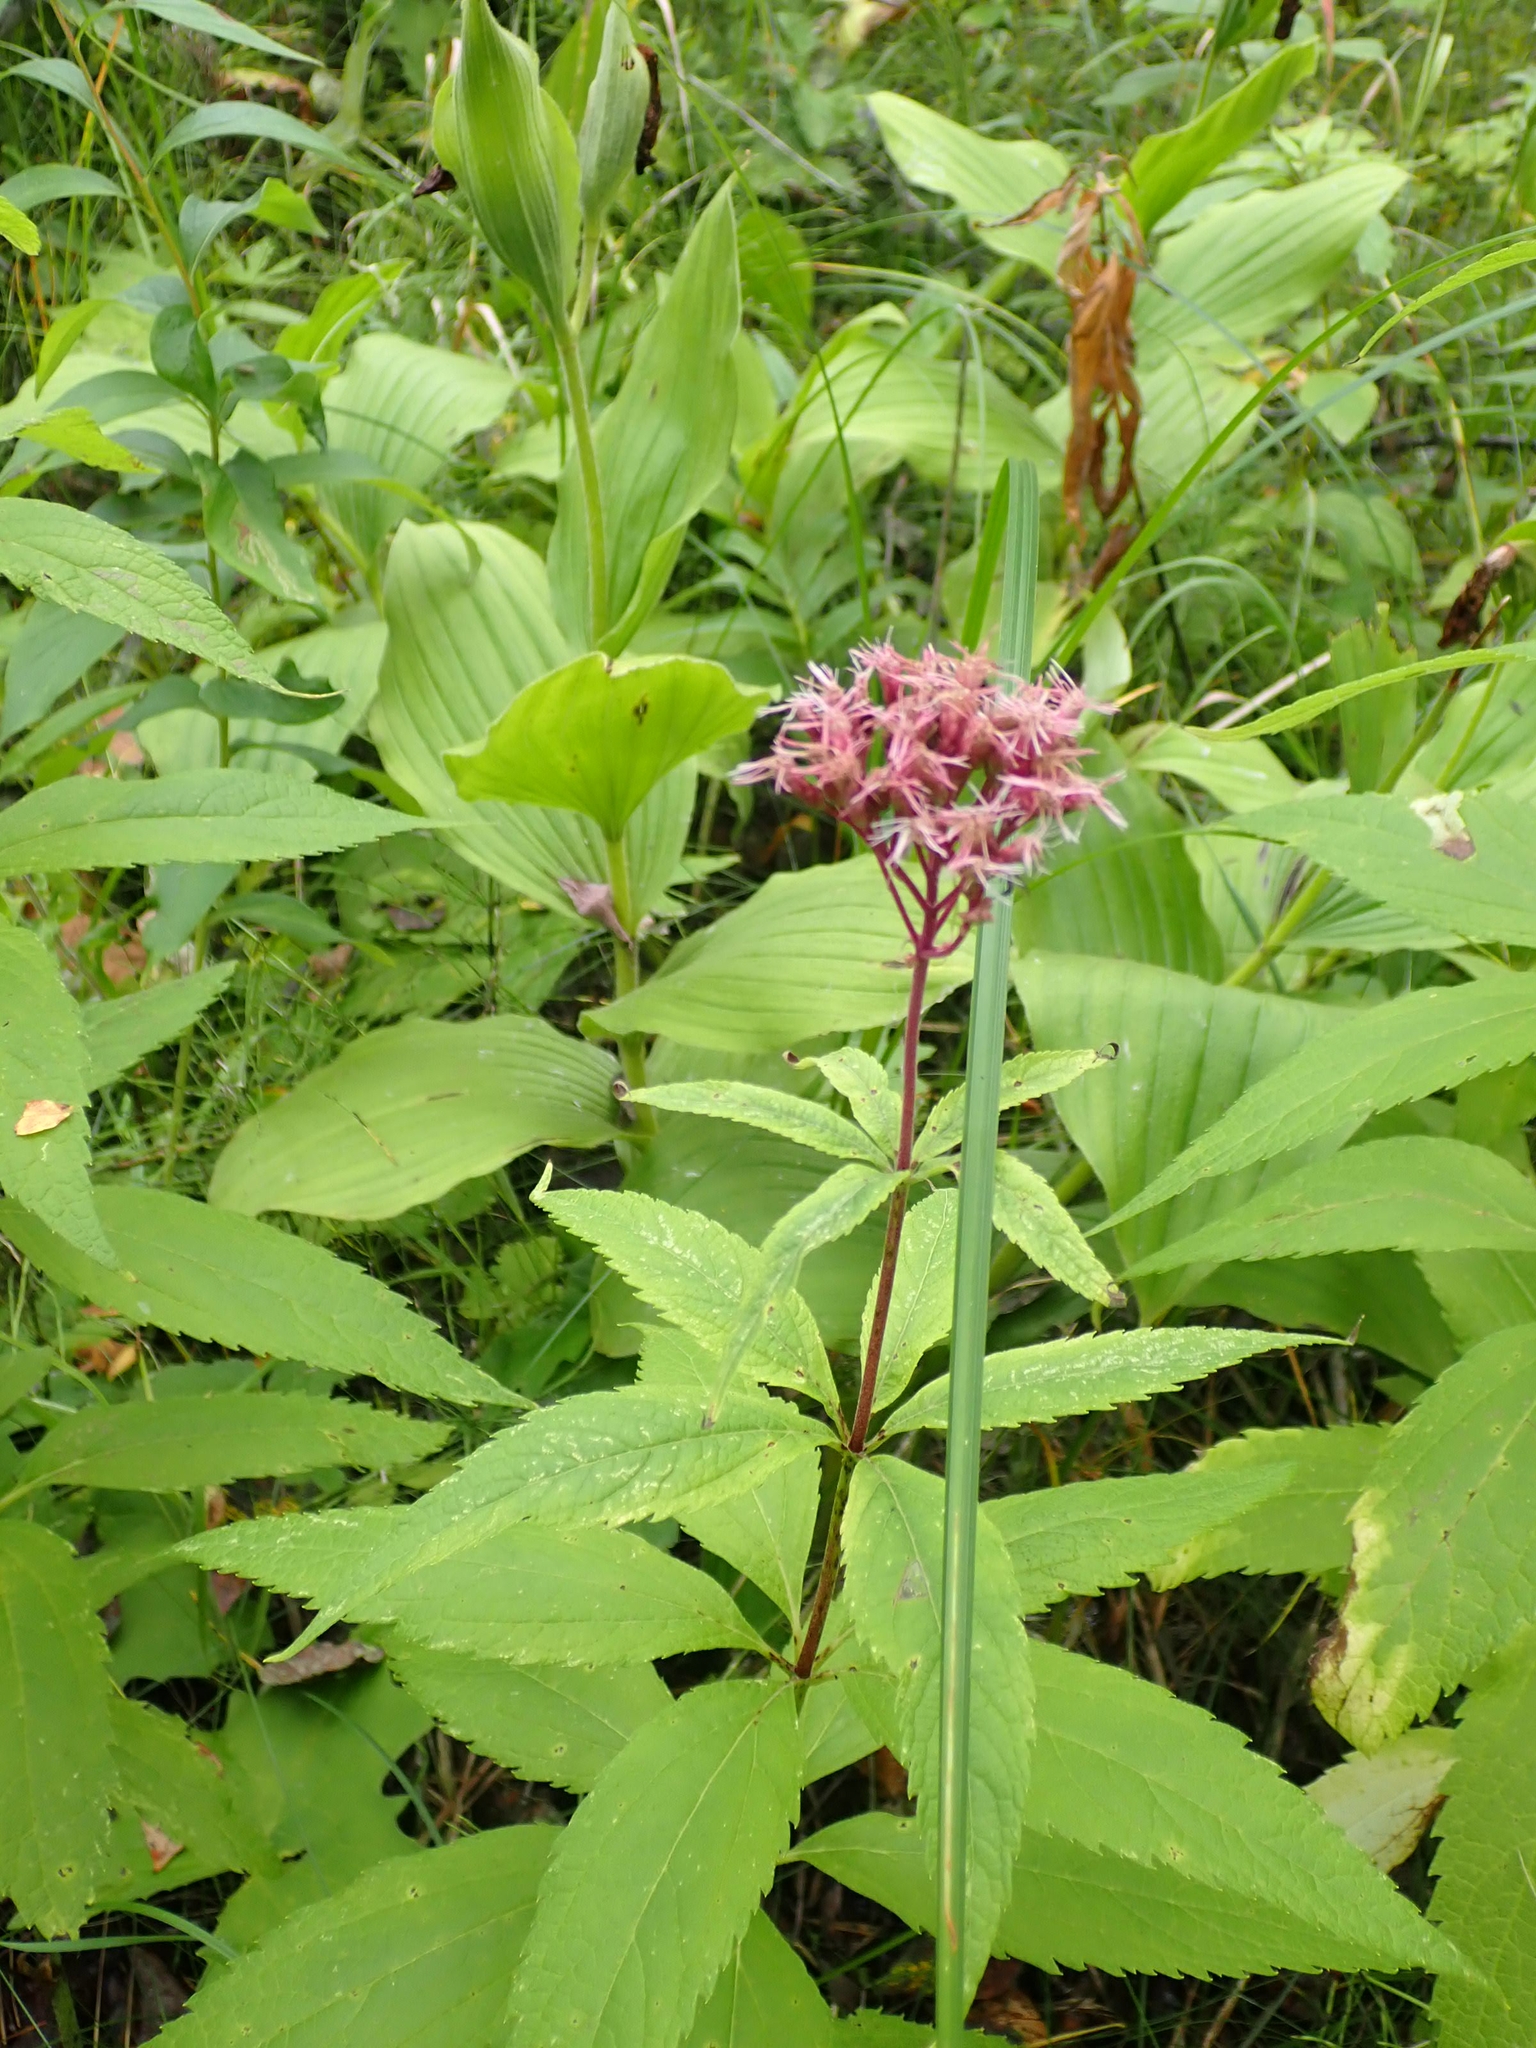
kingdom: Plantae
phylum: Tracheophyta
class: Magnoliopsida
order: Asterales
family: Asteraceae
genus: Eutrochium
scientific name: Eutrochium maculatum
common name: Spotted joe pye weed
